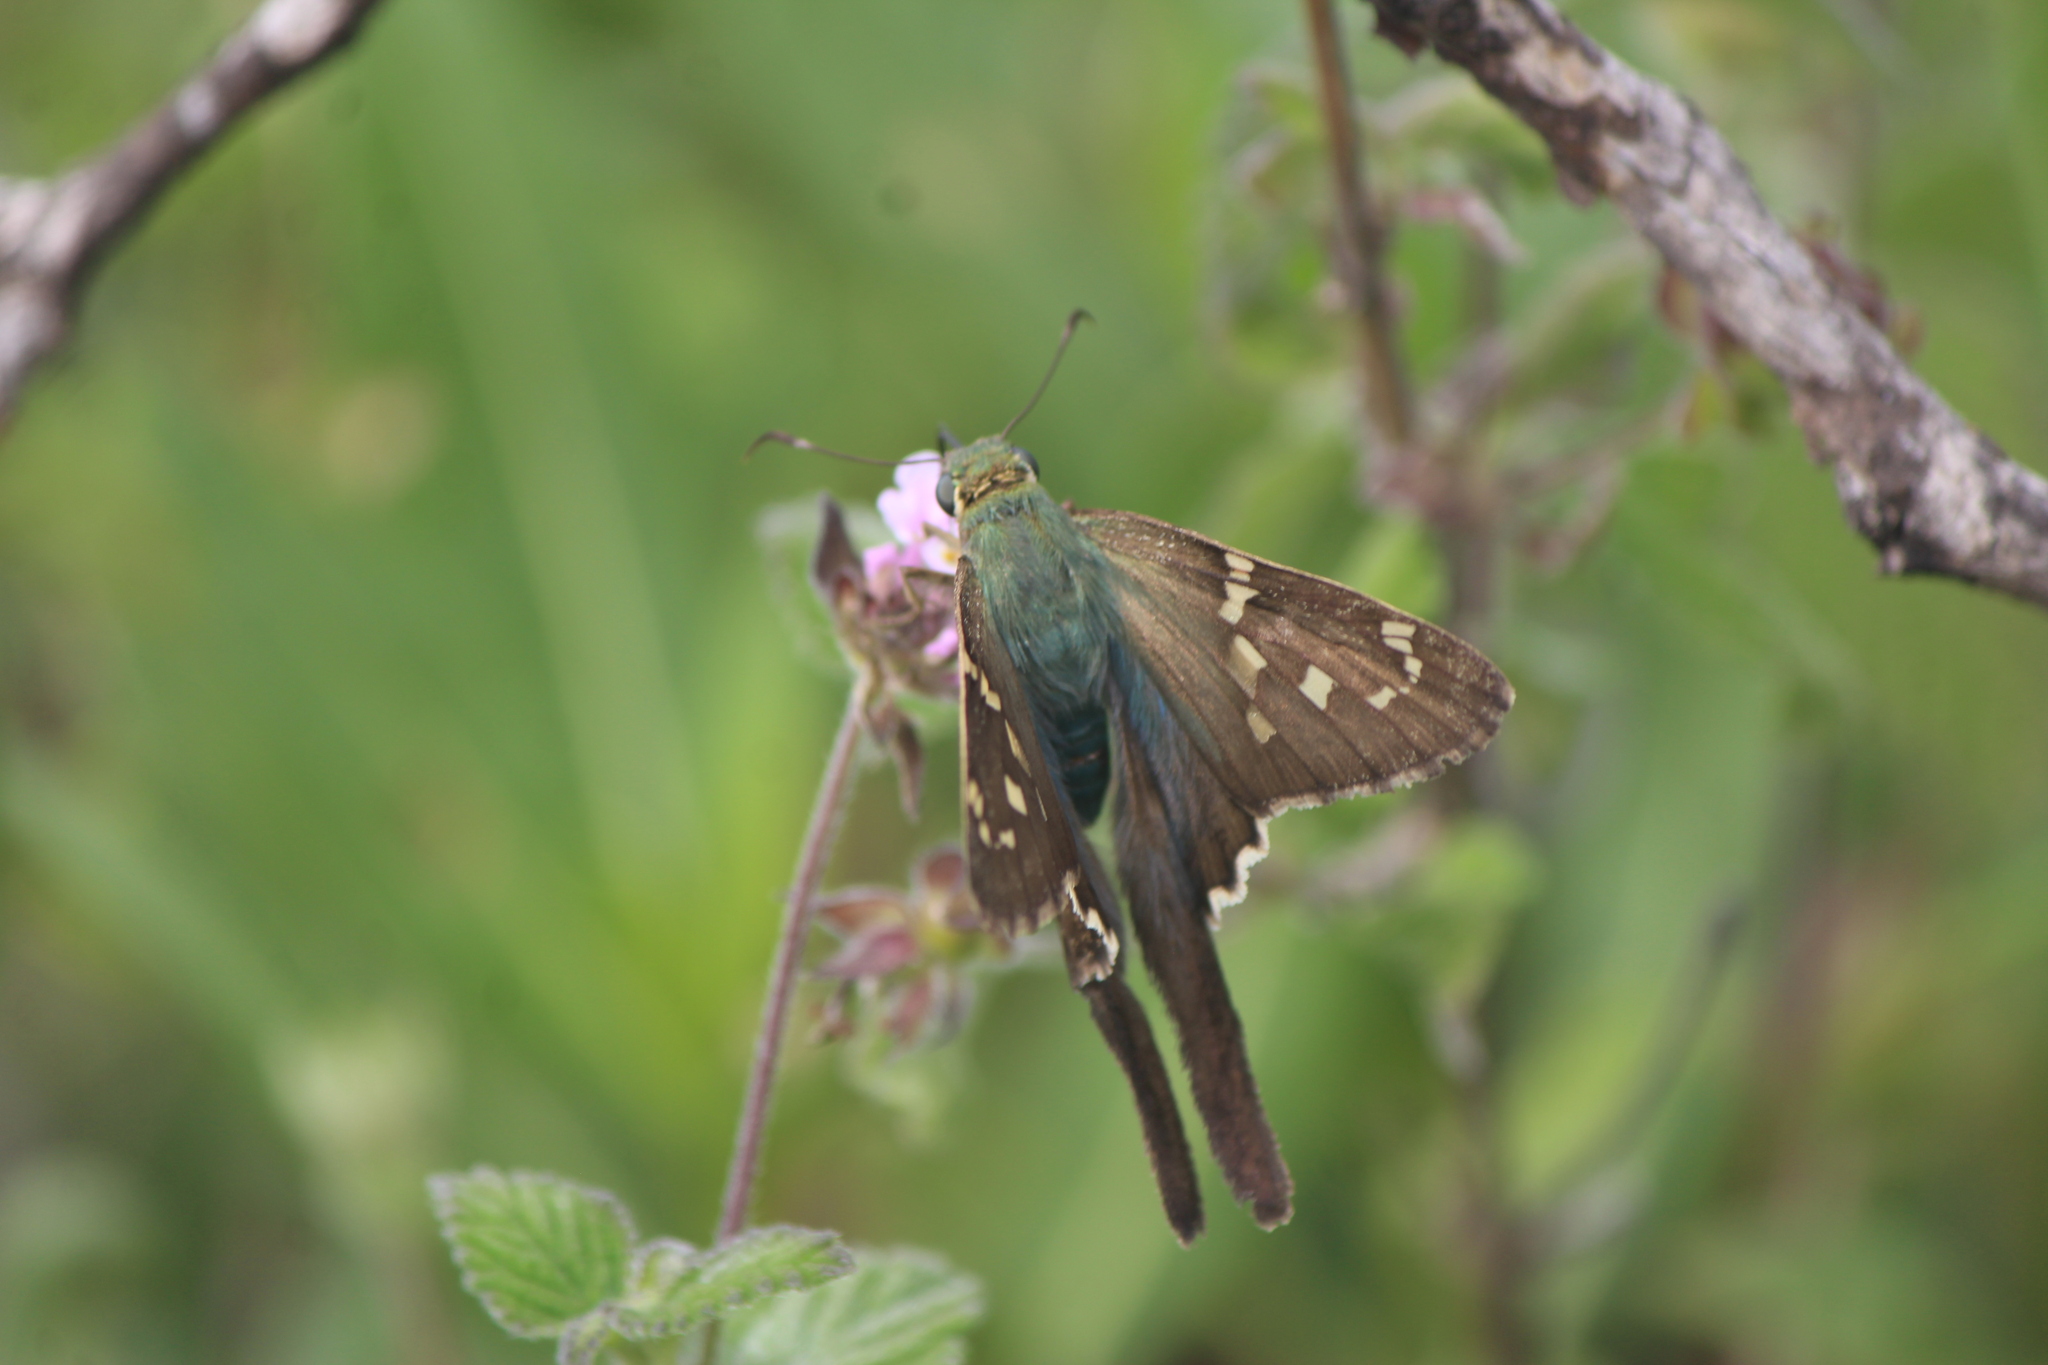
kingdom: Animalia
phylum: Arthropoda
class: Insecta
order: Lepidoptera
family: Hesperiidae
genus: Urbanus
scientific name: Urbanus proteus
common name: Long-tailed skipper
